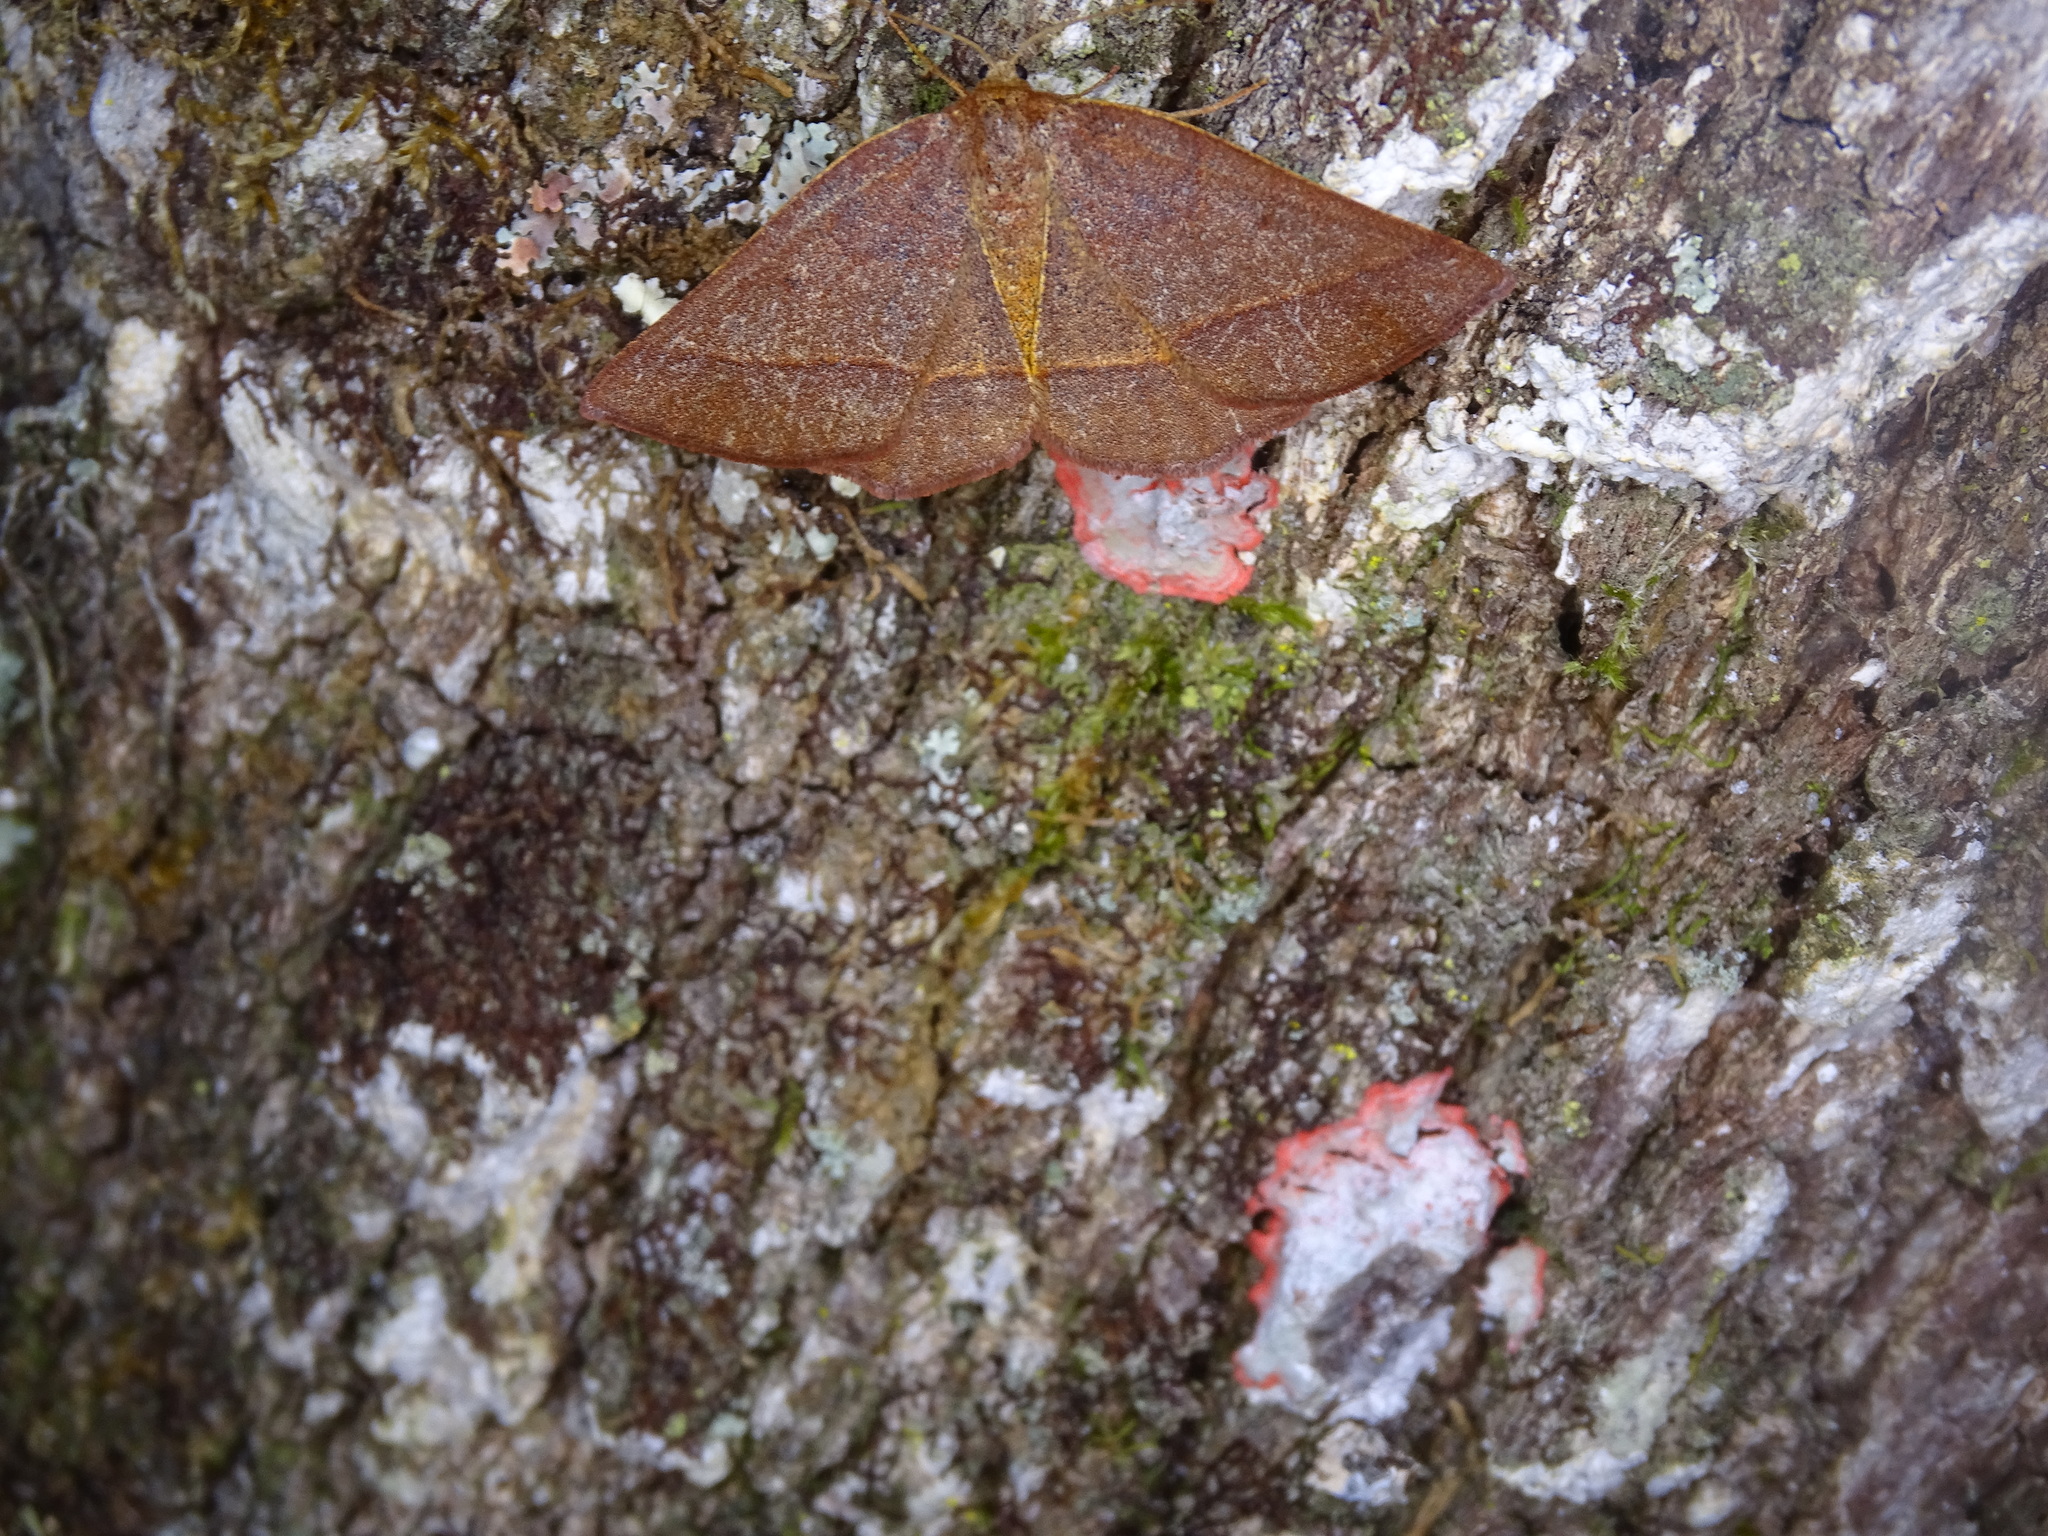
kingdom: Animalia
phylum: Arthropoda
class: Insecta
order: Lepidoptera
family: Geometridae
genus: Metarranthis
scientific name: Metarranthis obfirmaria
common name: Yellow-washed metarranthis
